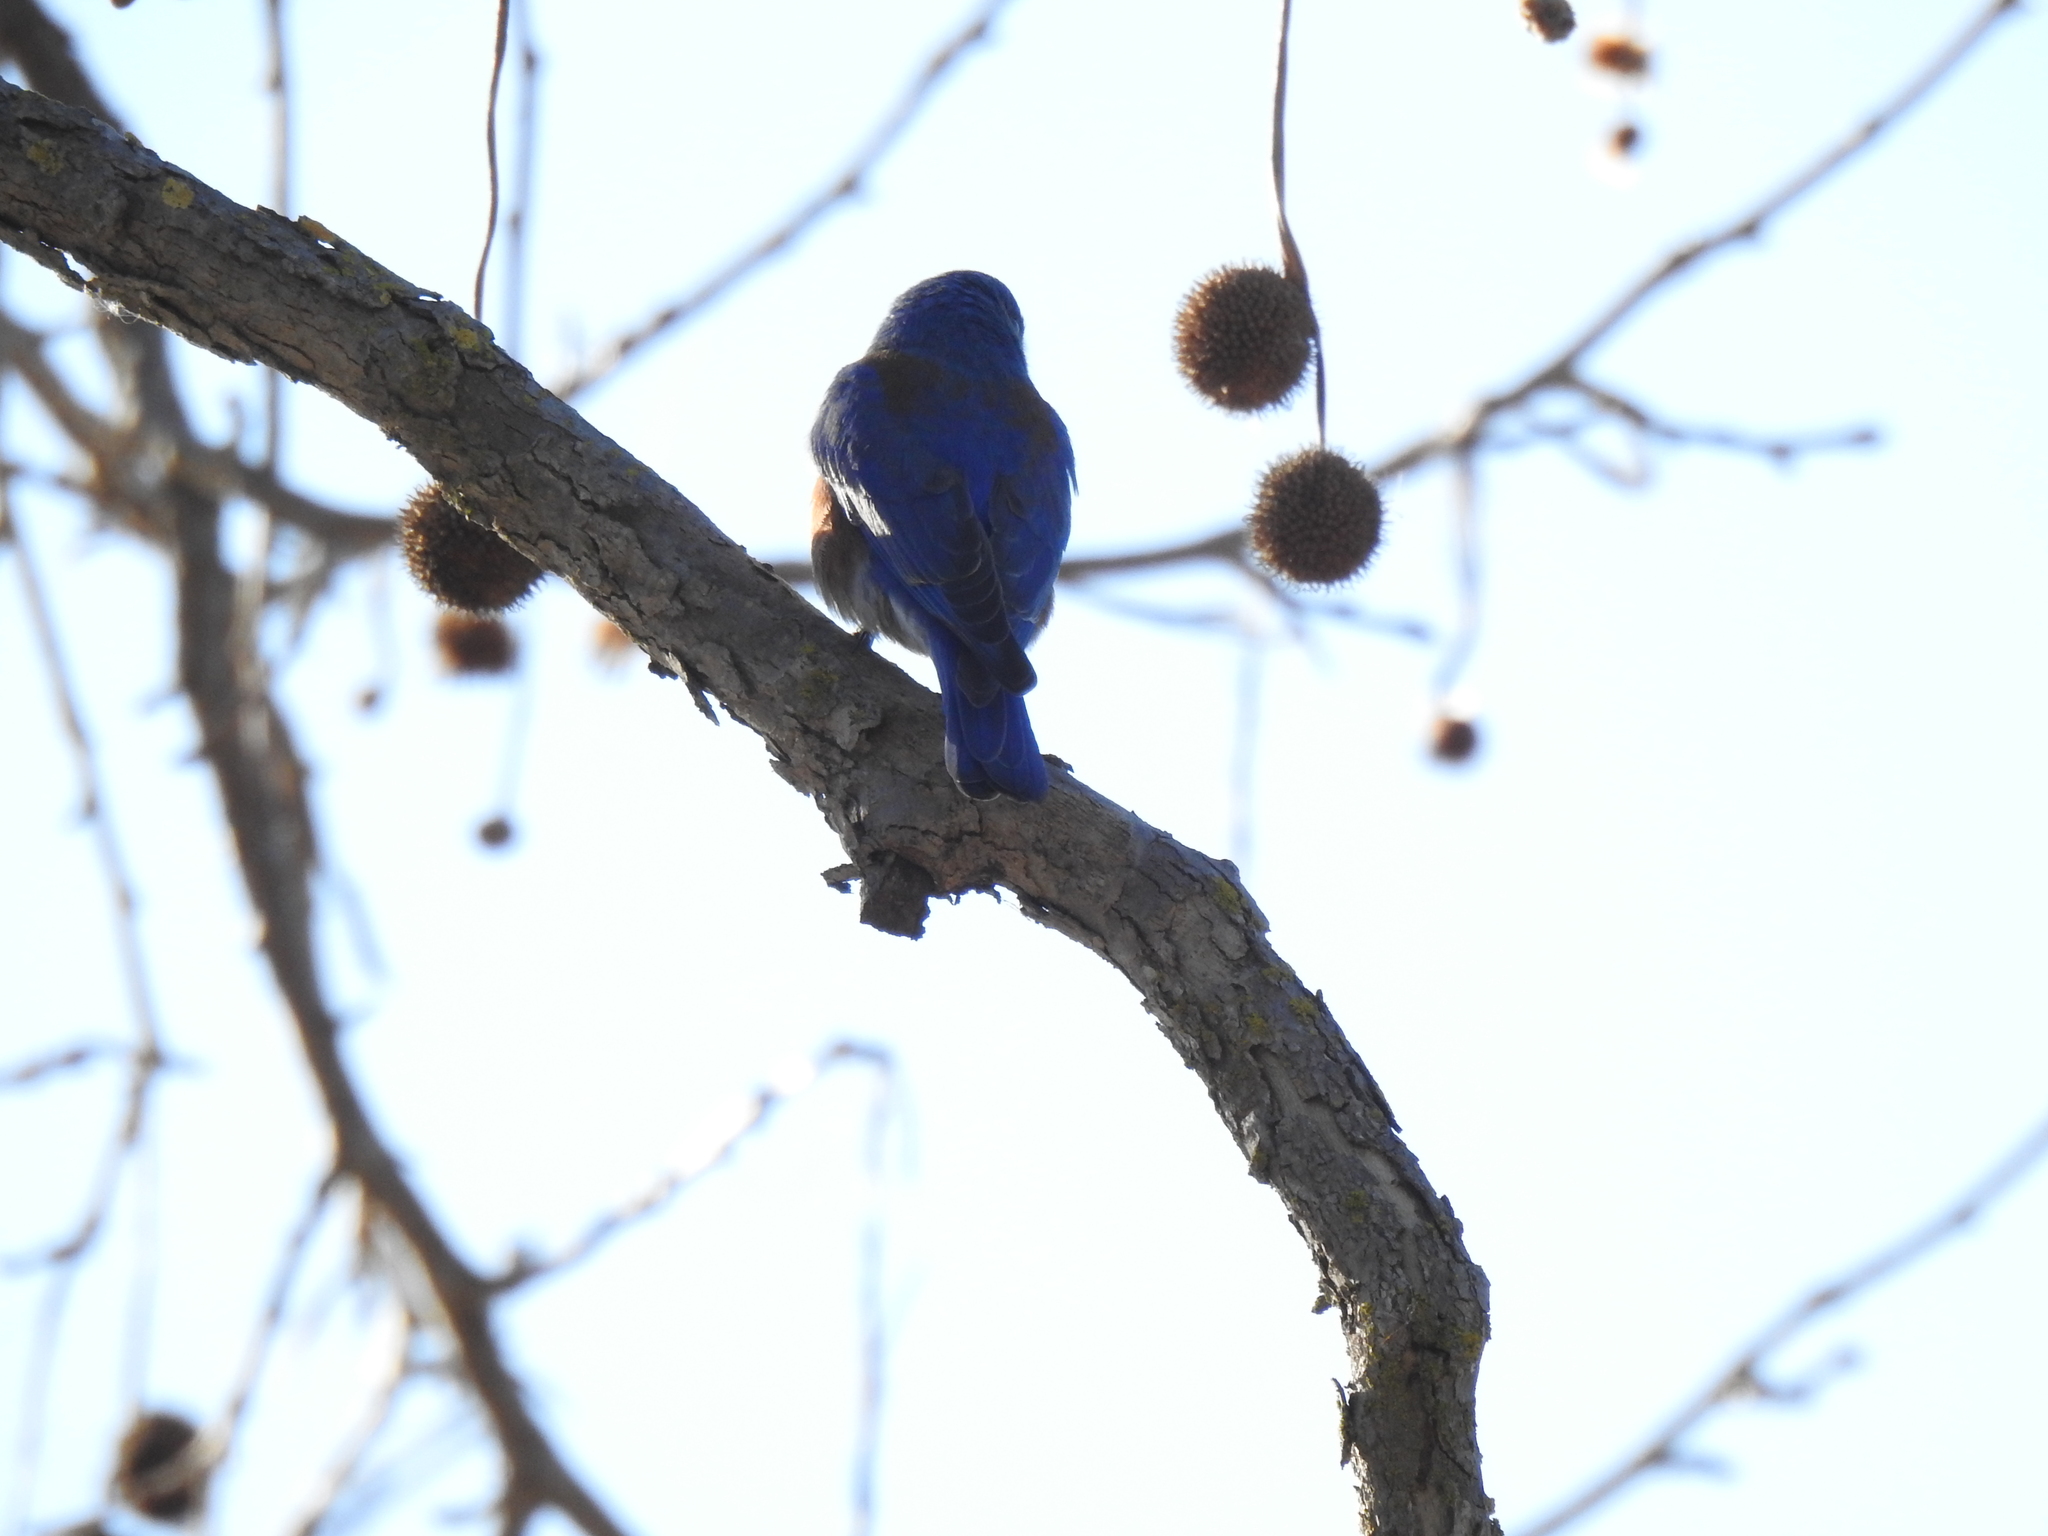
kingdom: Animalia
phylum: Chordata
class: Aves
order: Passeriformes
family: Turdidae
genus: Sialia
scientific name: Sialia mexicana
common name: Western bluebird
